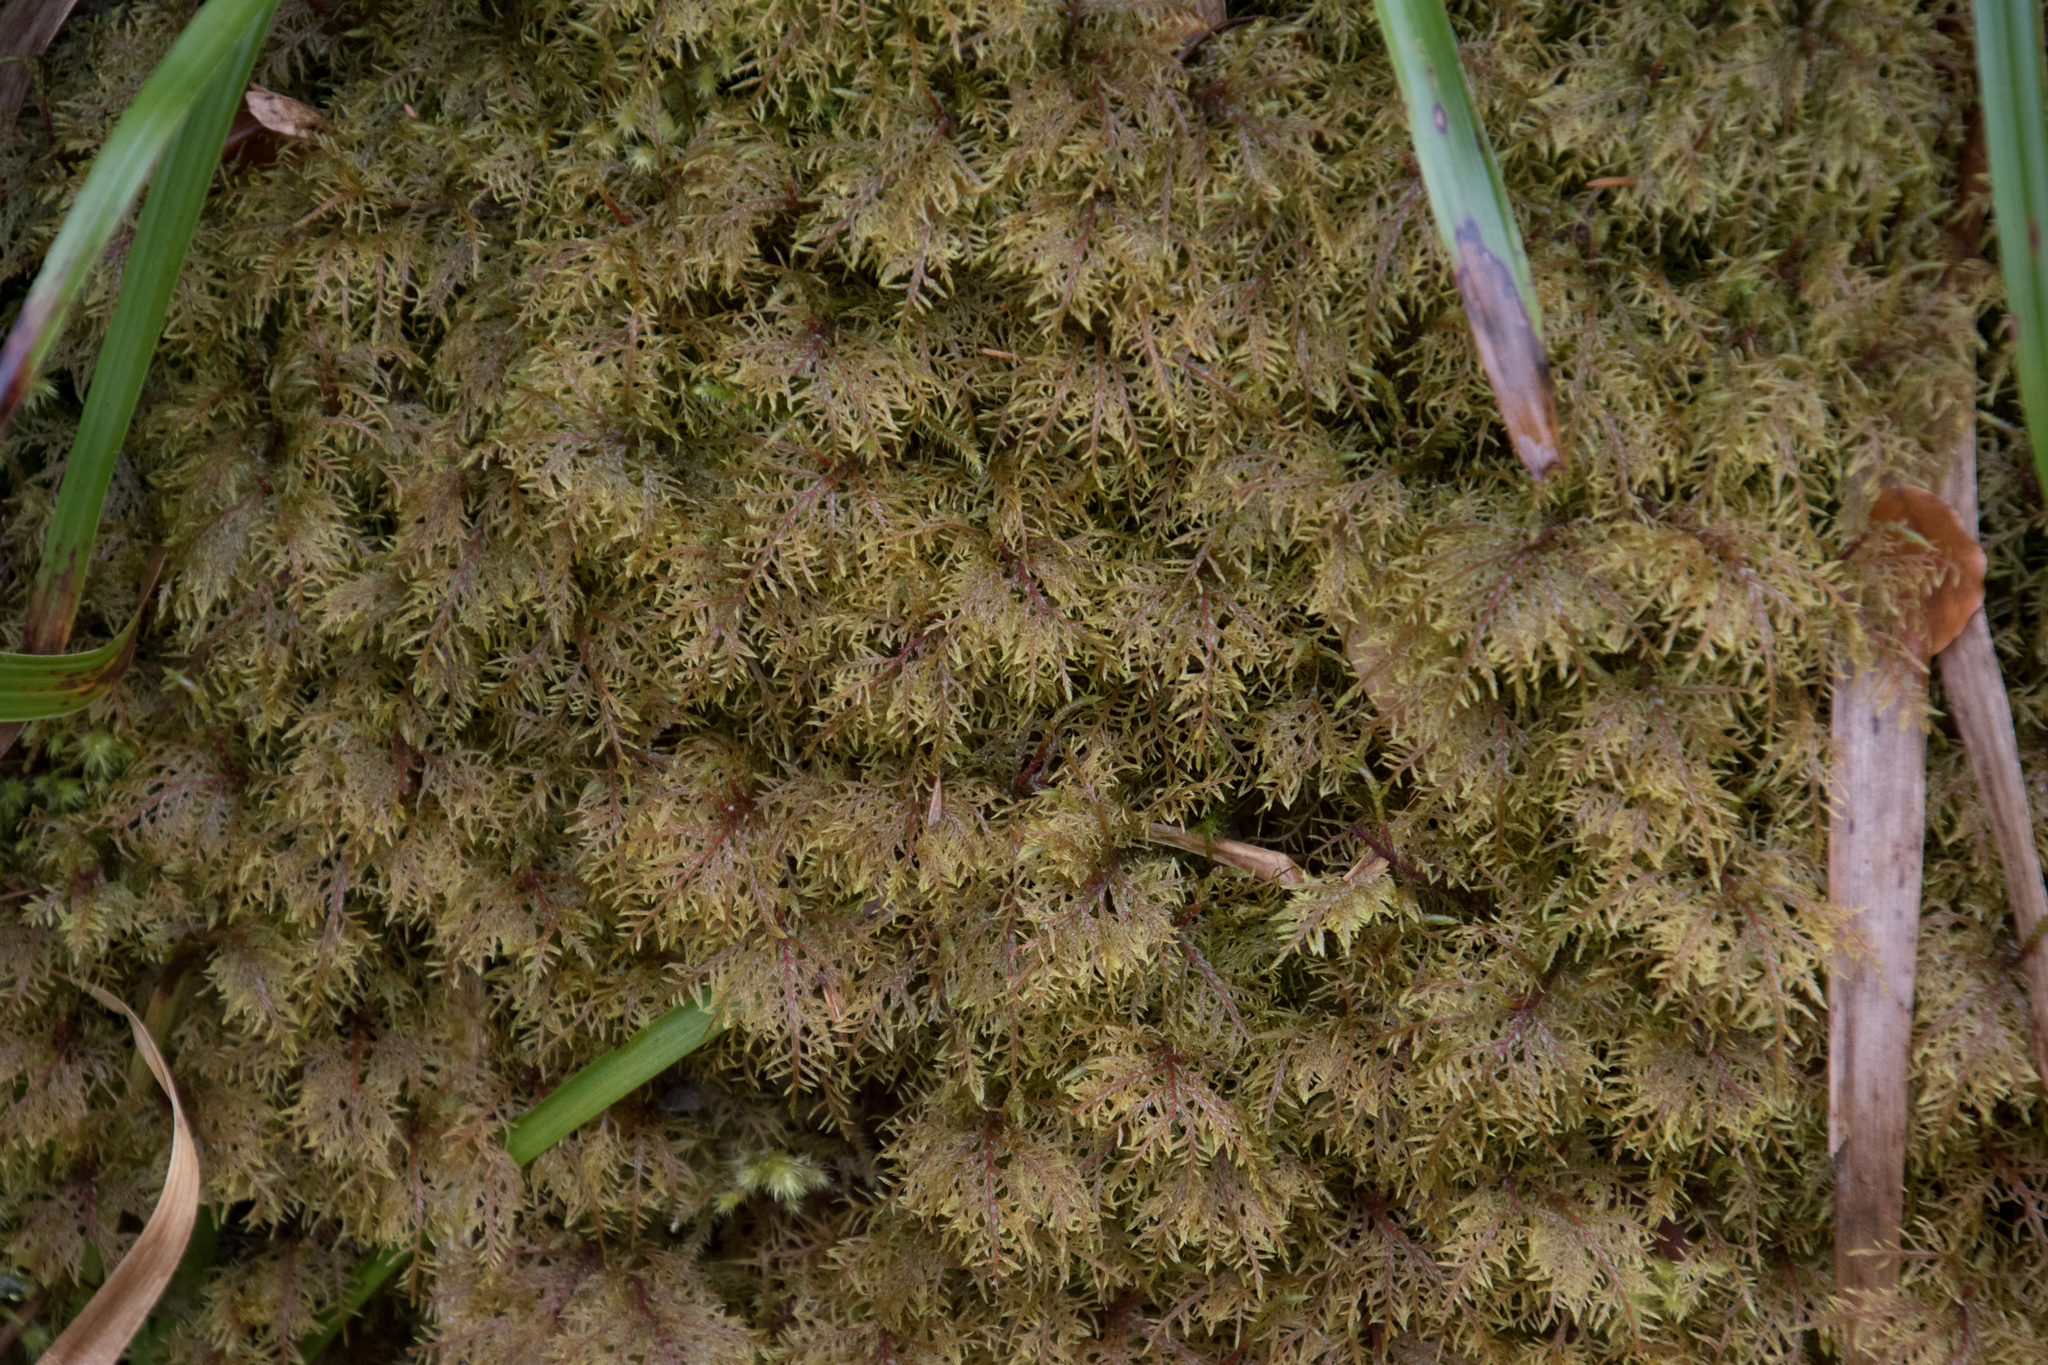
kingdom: Plantae
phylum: Bryophyta
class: Bryopsida
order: Hypnales
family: Hylocomiaceae
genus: Hylocomium
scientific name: Hylocomium splendens
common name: Stairstep moss
